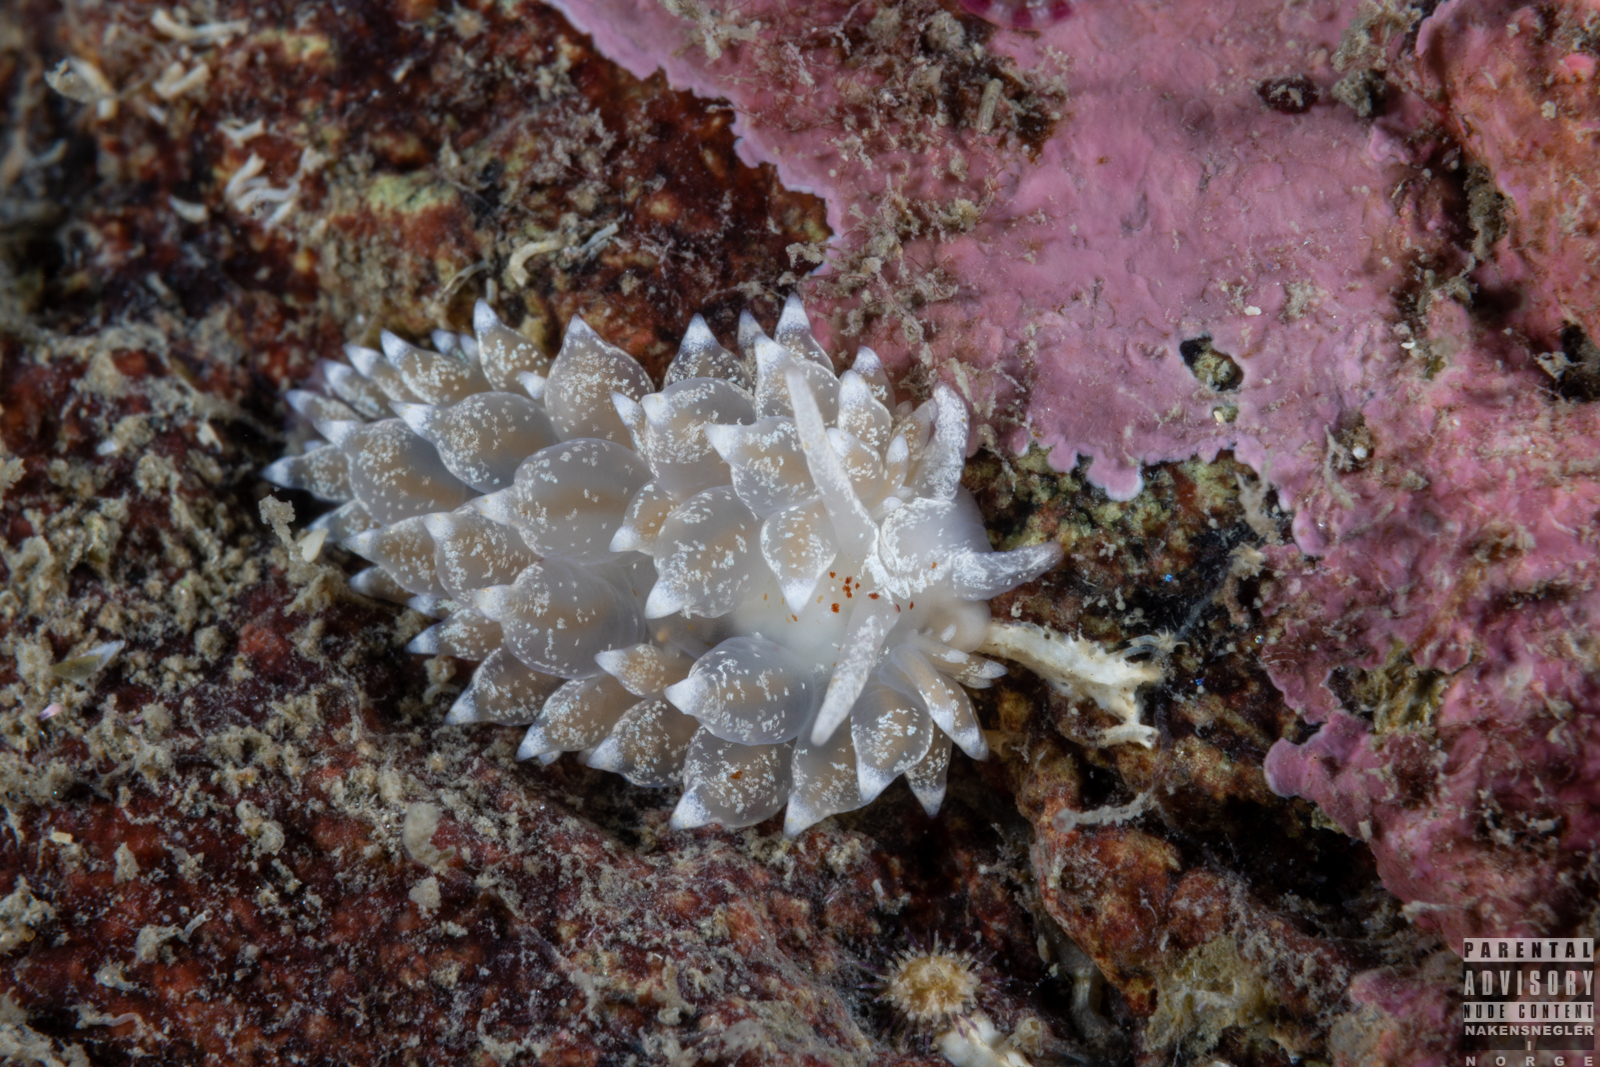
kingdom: Animalia
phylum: Mollusca
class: Gastropoda
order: Nudibranchia
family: Eubranchidae
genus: Amphorina
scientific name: Amphorina pallida
